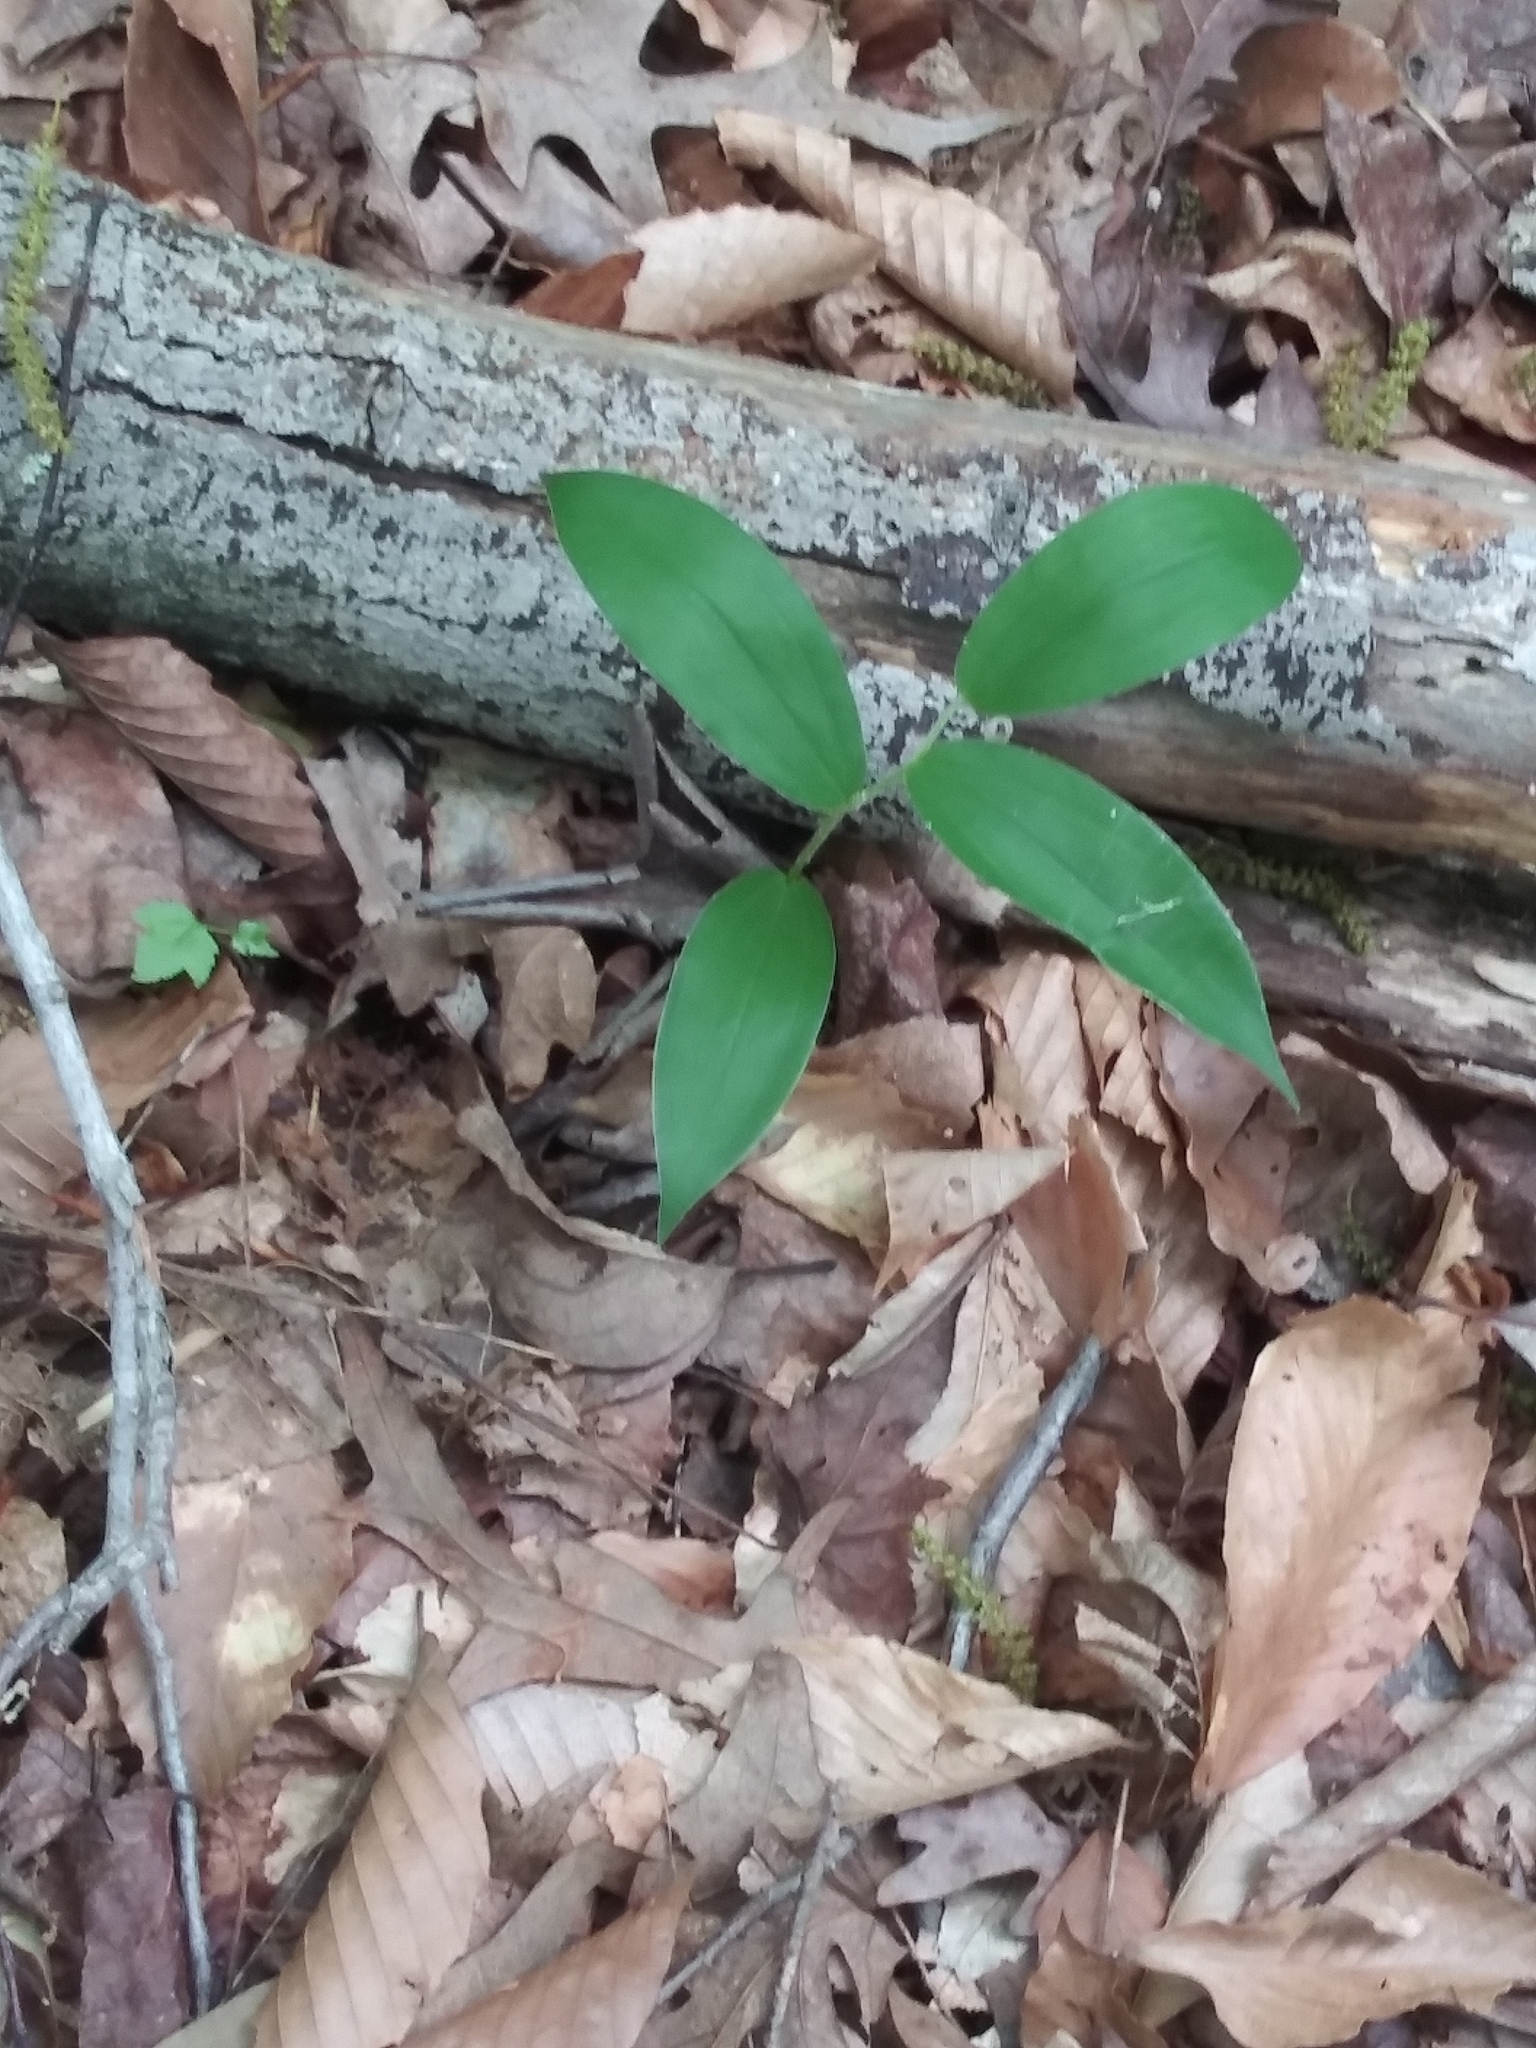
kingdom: Plantae
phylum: Tracheophyta
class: Liliopsida
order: Asparagales
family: Asparagaceae
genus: Maianthemum
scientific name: Maianthemum racemosum
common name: False spikenard
